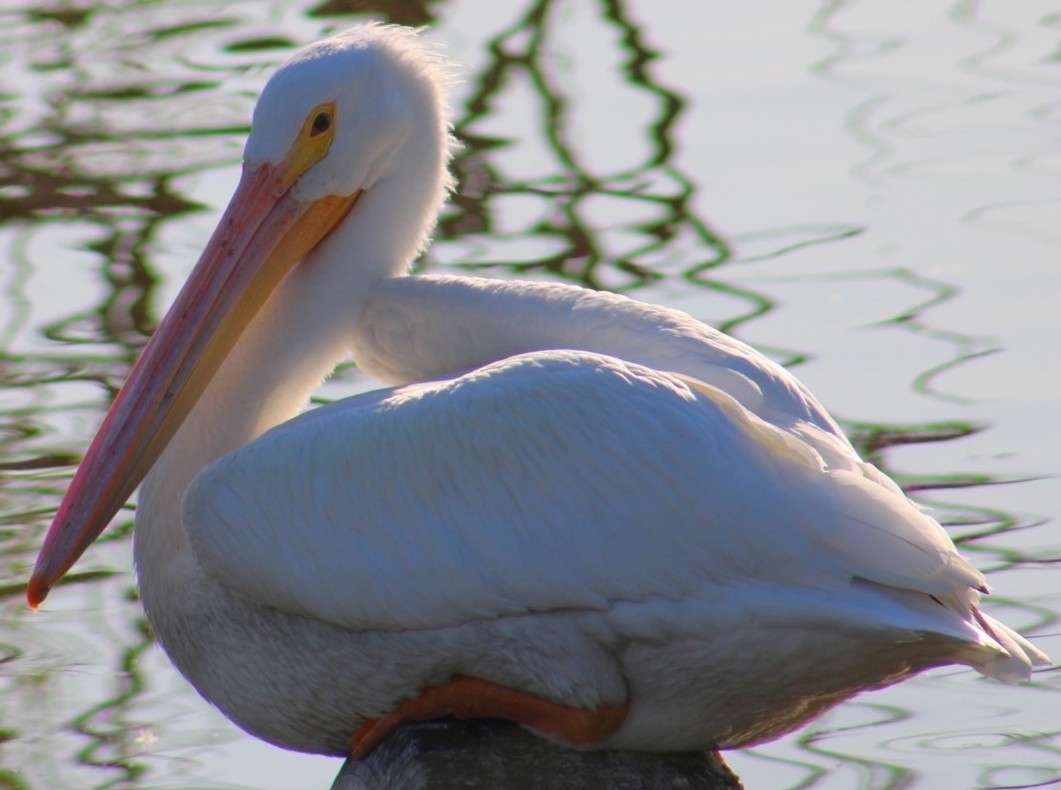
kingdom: Animalia
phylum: Chordata
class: Aves
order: Pelecaniformes
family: Pelecanidae
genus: Pelecanus
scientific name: Pelecanus erythrorhynchos
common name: American white pelican
